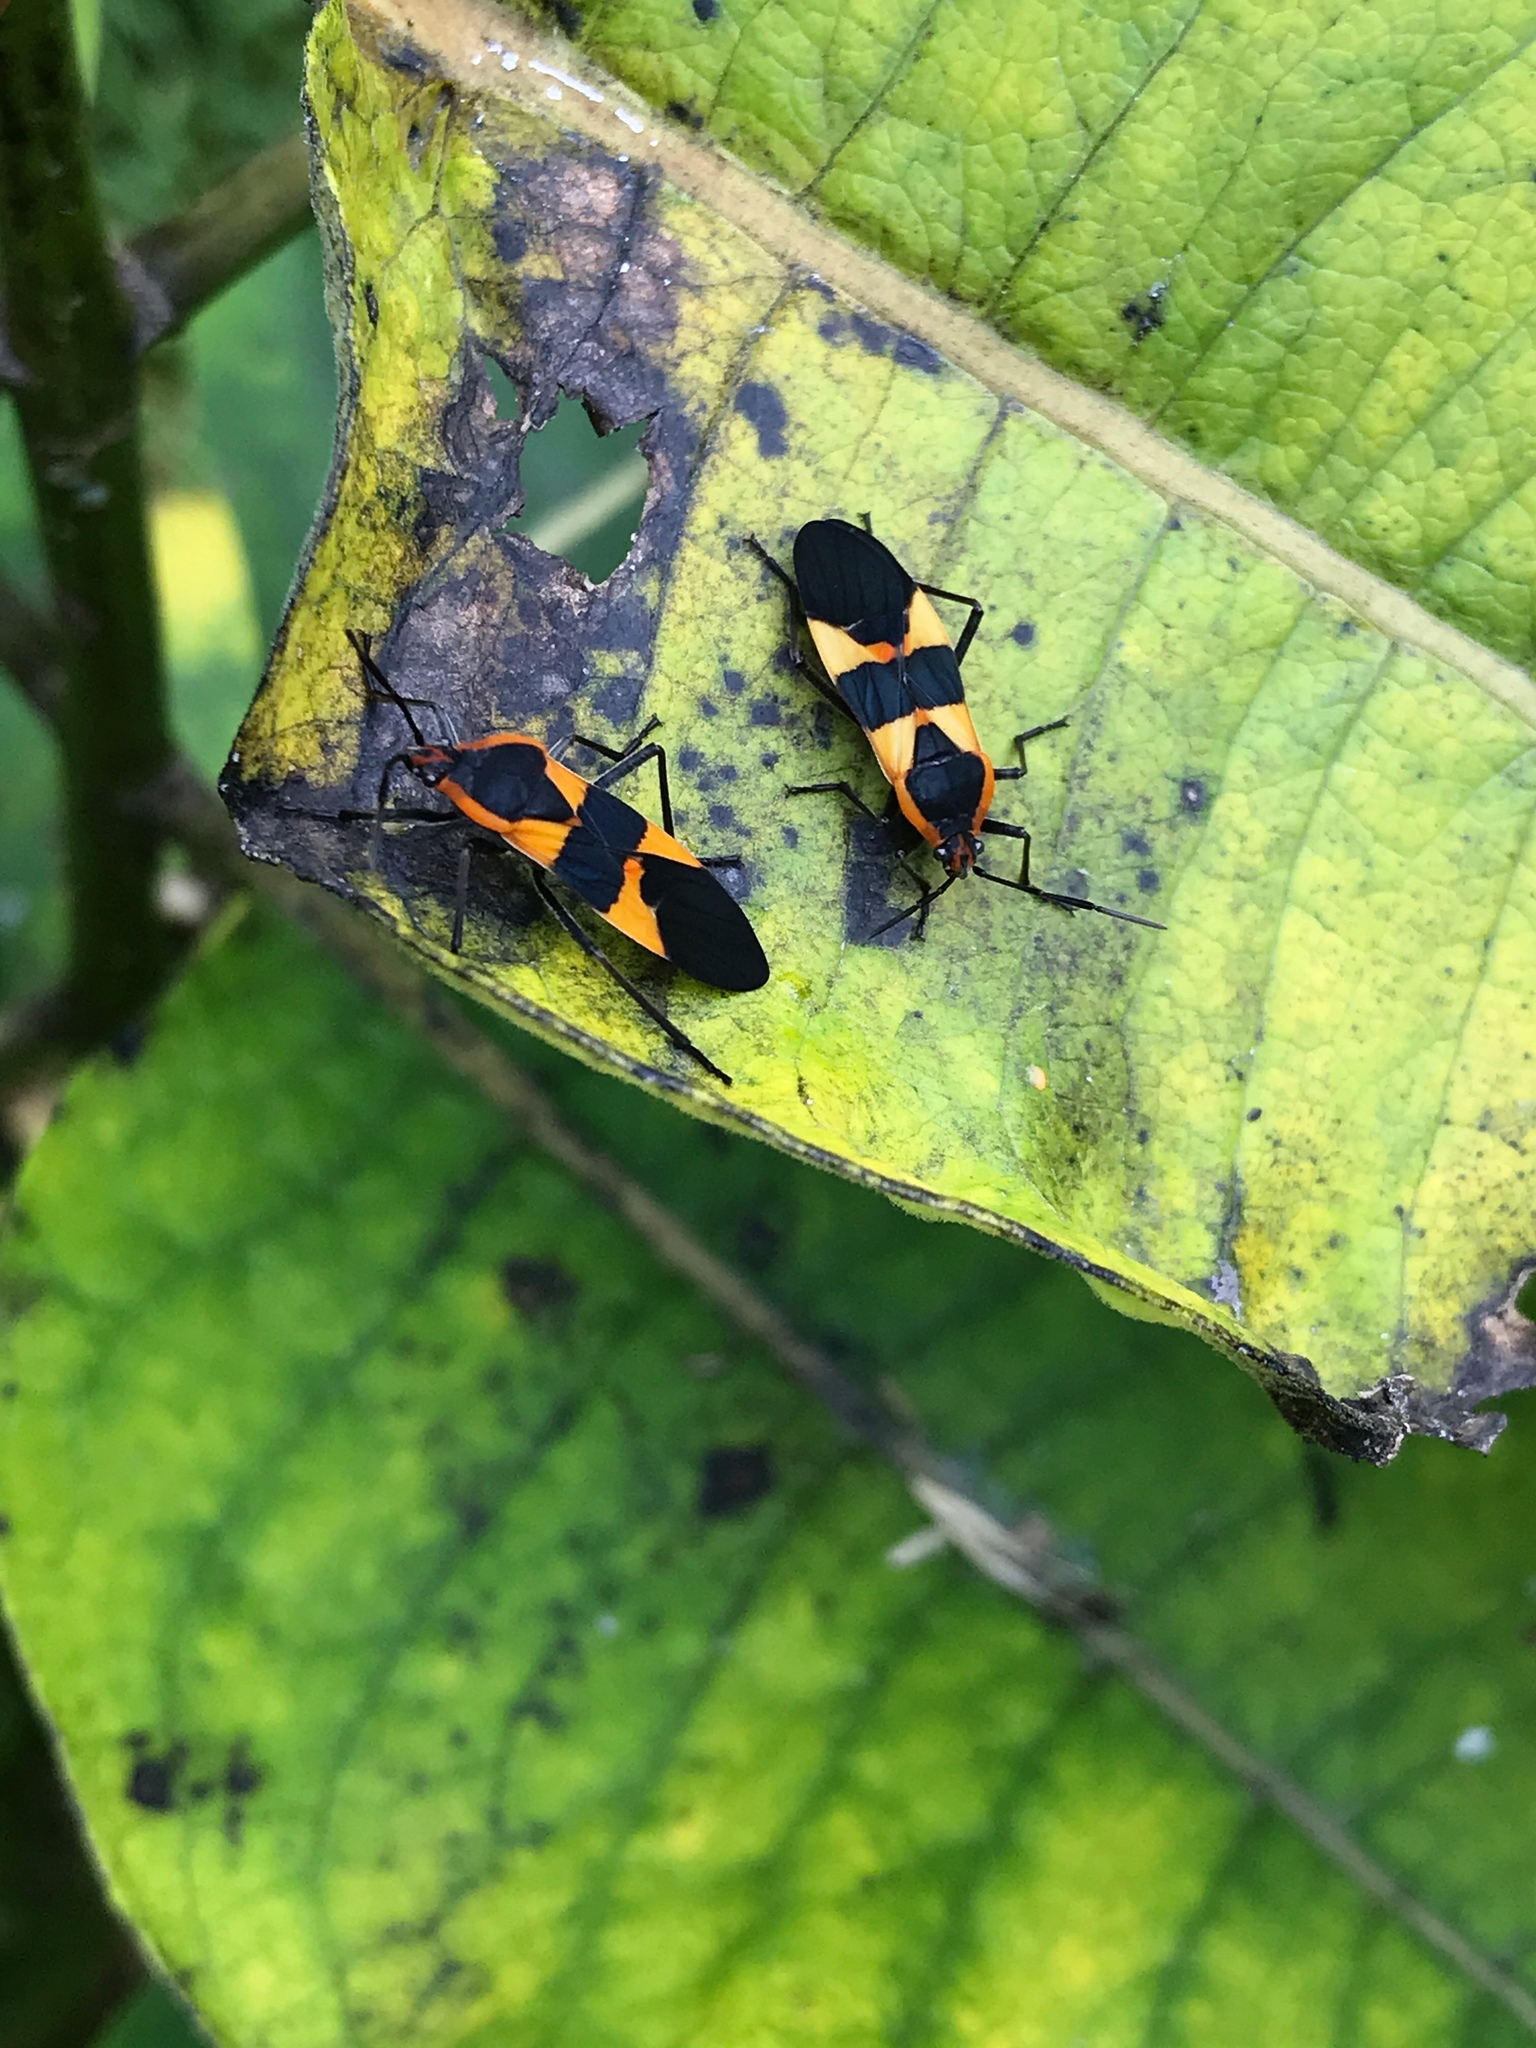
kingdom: Animalia
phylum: Arthropoda
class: Insecta
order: Hemiptera
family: Lygaeidae
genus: Oncopeltus
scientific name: Oncopeltus fasciatus
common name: Large milkweed bug
